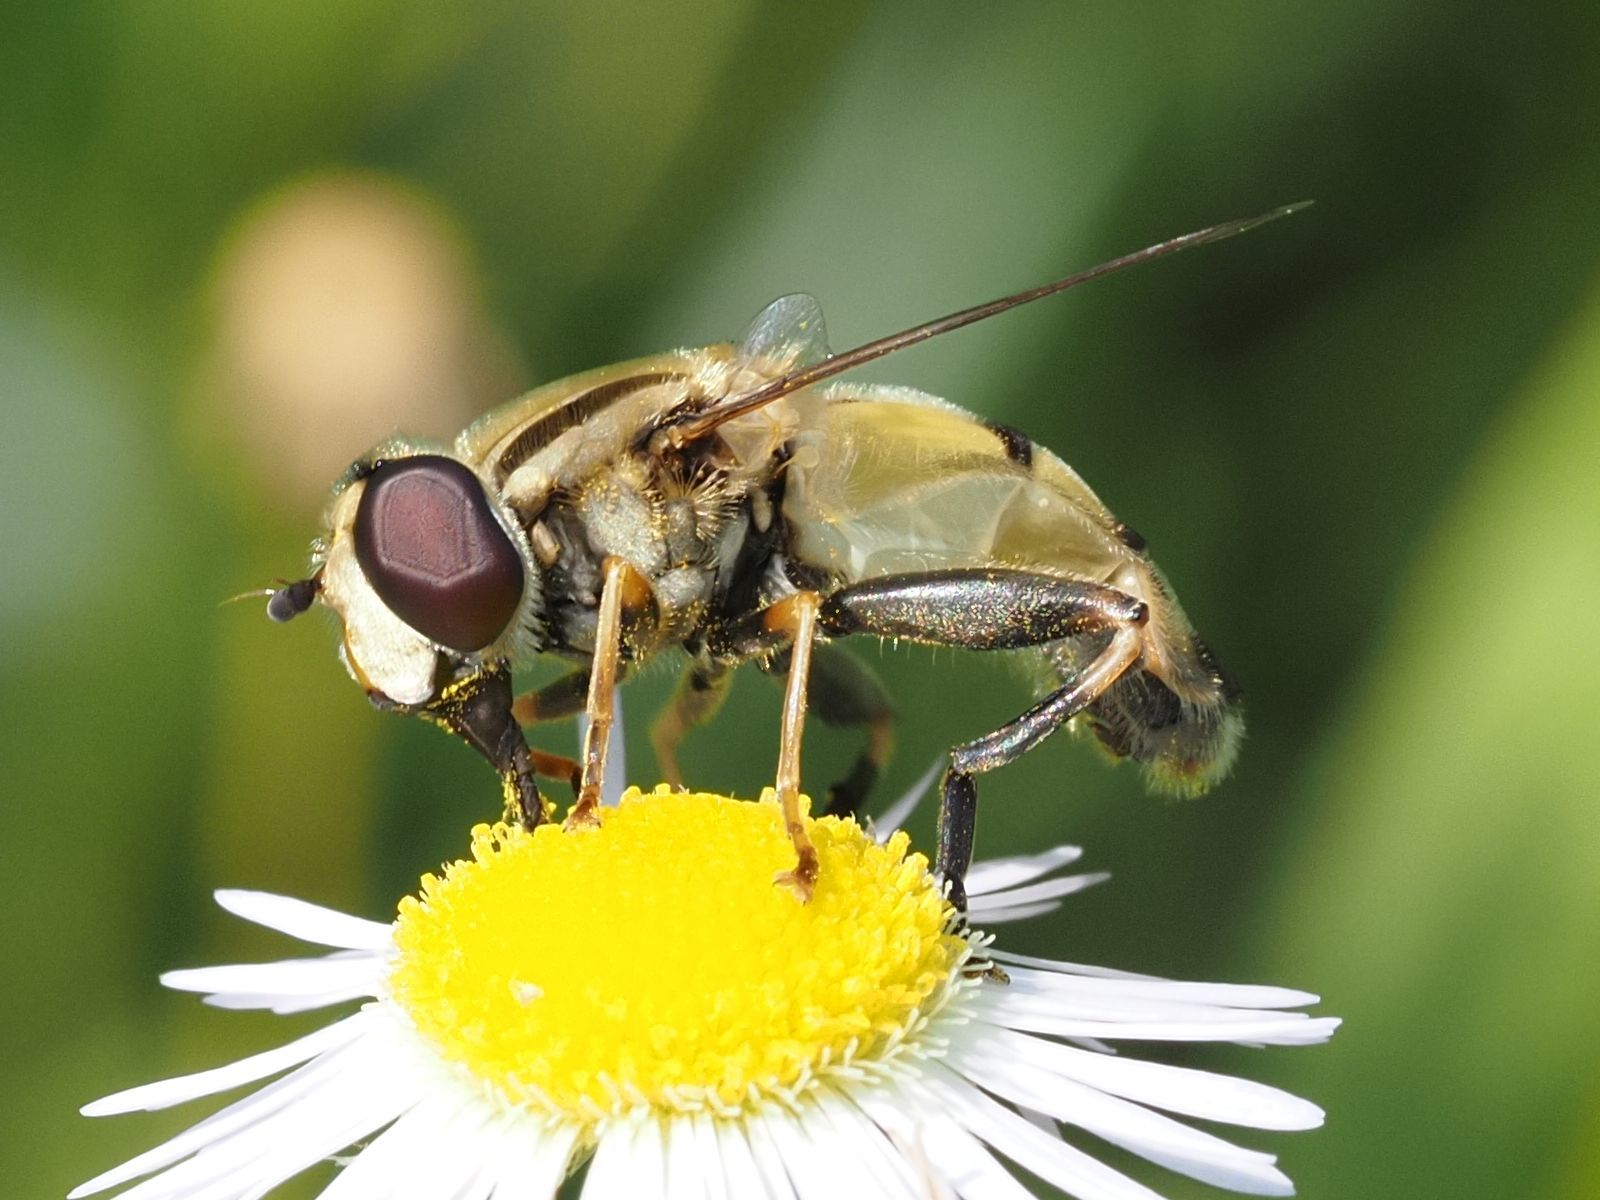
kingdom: Animalia
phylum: Arthropoda
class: Insecta
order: Diptera
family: Syrphidae
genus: Helophilus
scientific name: Helophilus trivittatus
